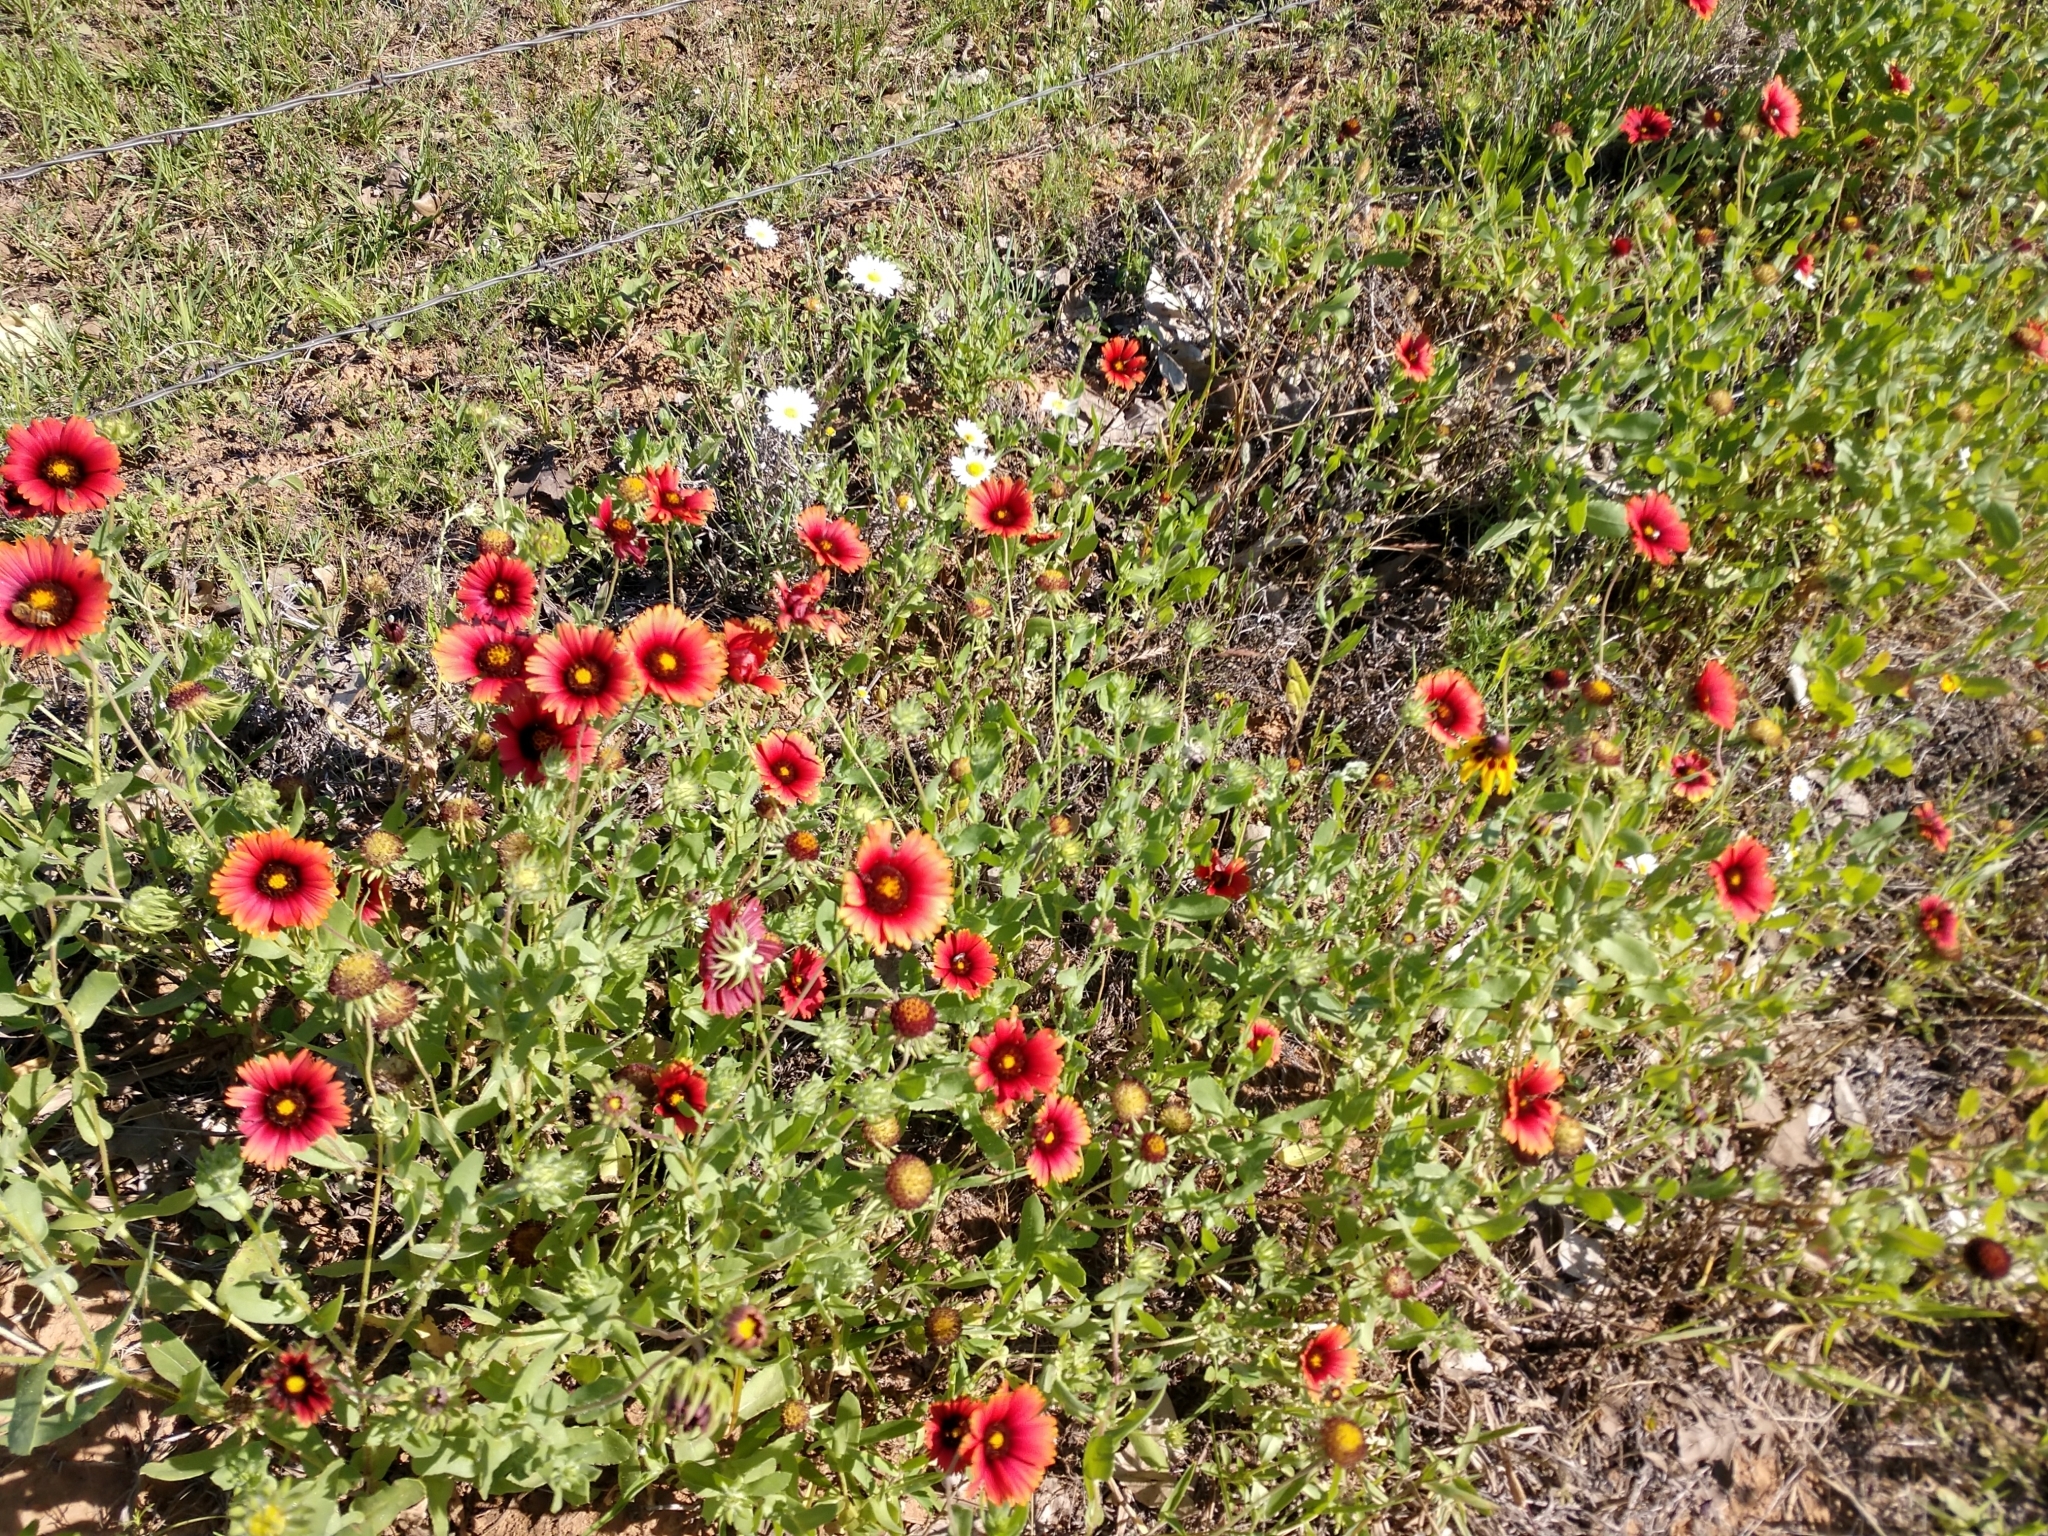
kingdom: Plantae
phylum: Tracheophyta
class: Magnoliopsida
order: Asterales
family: Asteraceae
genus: Gaillardia
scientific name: Gaillardia amblyodon
